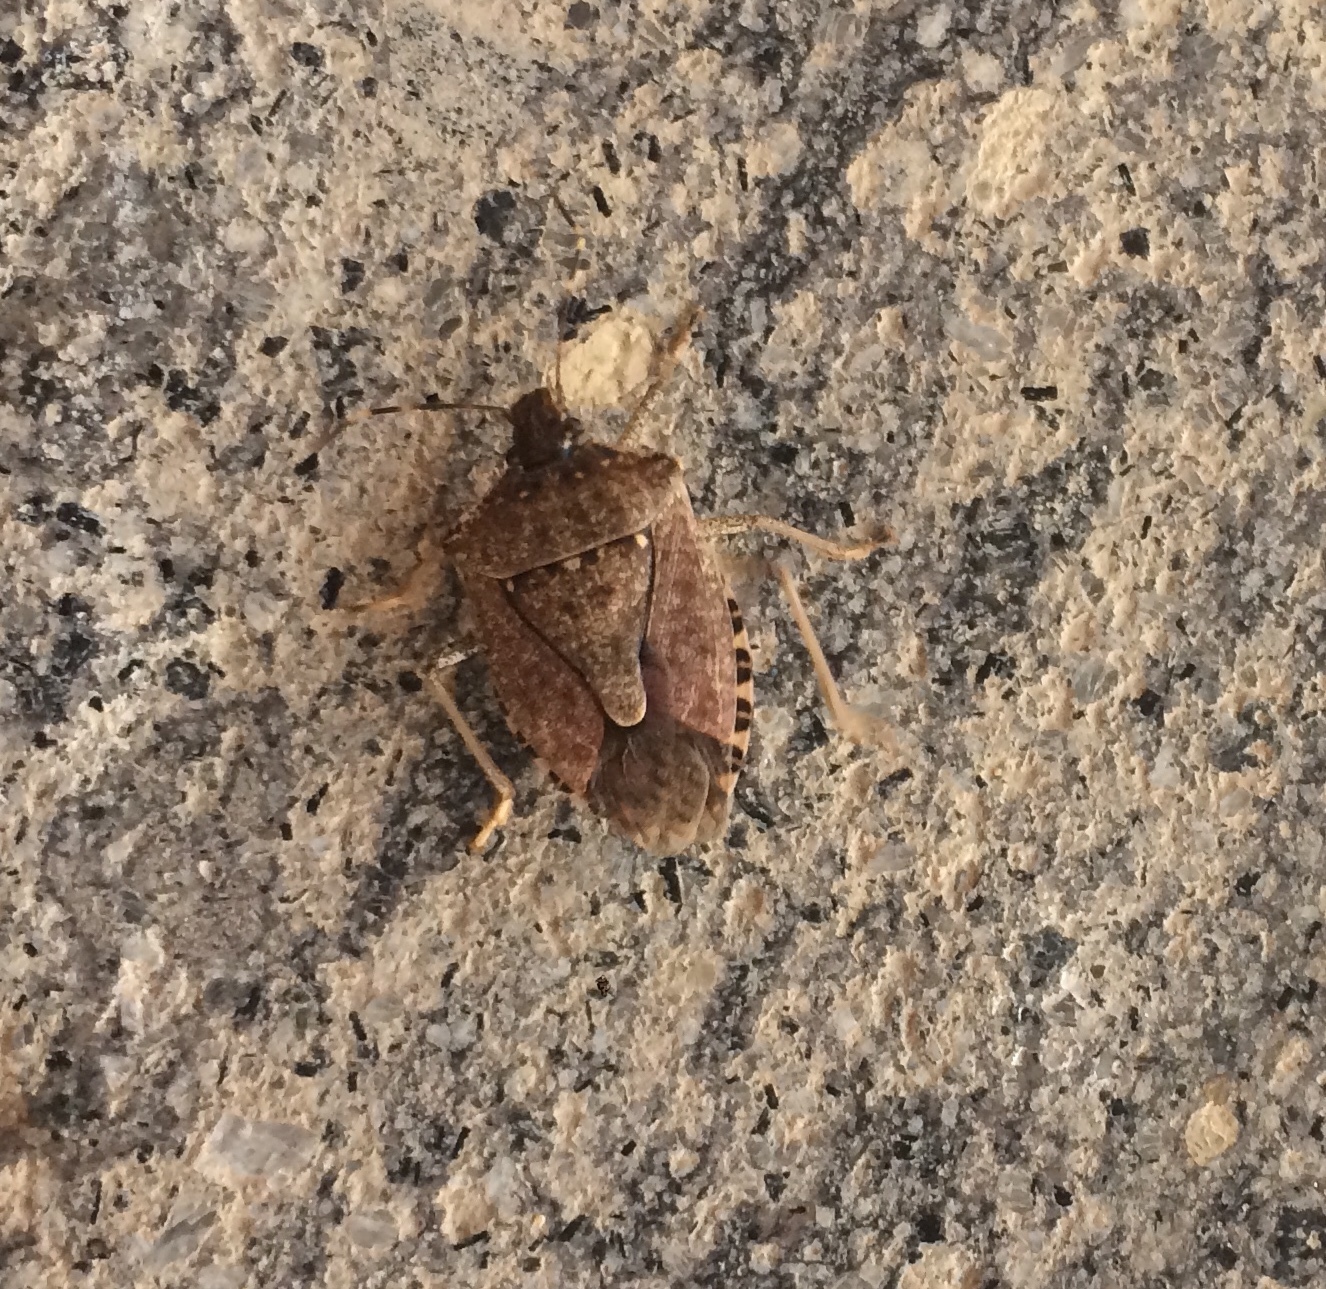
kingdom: Animalia
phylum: Arthropoda
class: Insecta
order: Hemiptera
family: Pentatomidae
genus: Halyomorpha
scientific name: Halyomorpha halys
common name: Brown marmorated stink bug
